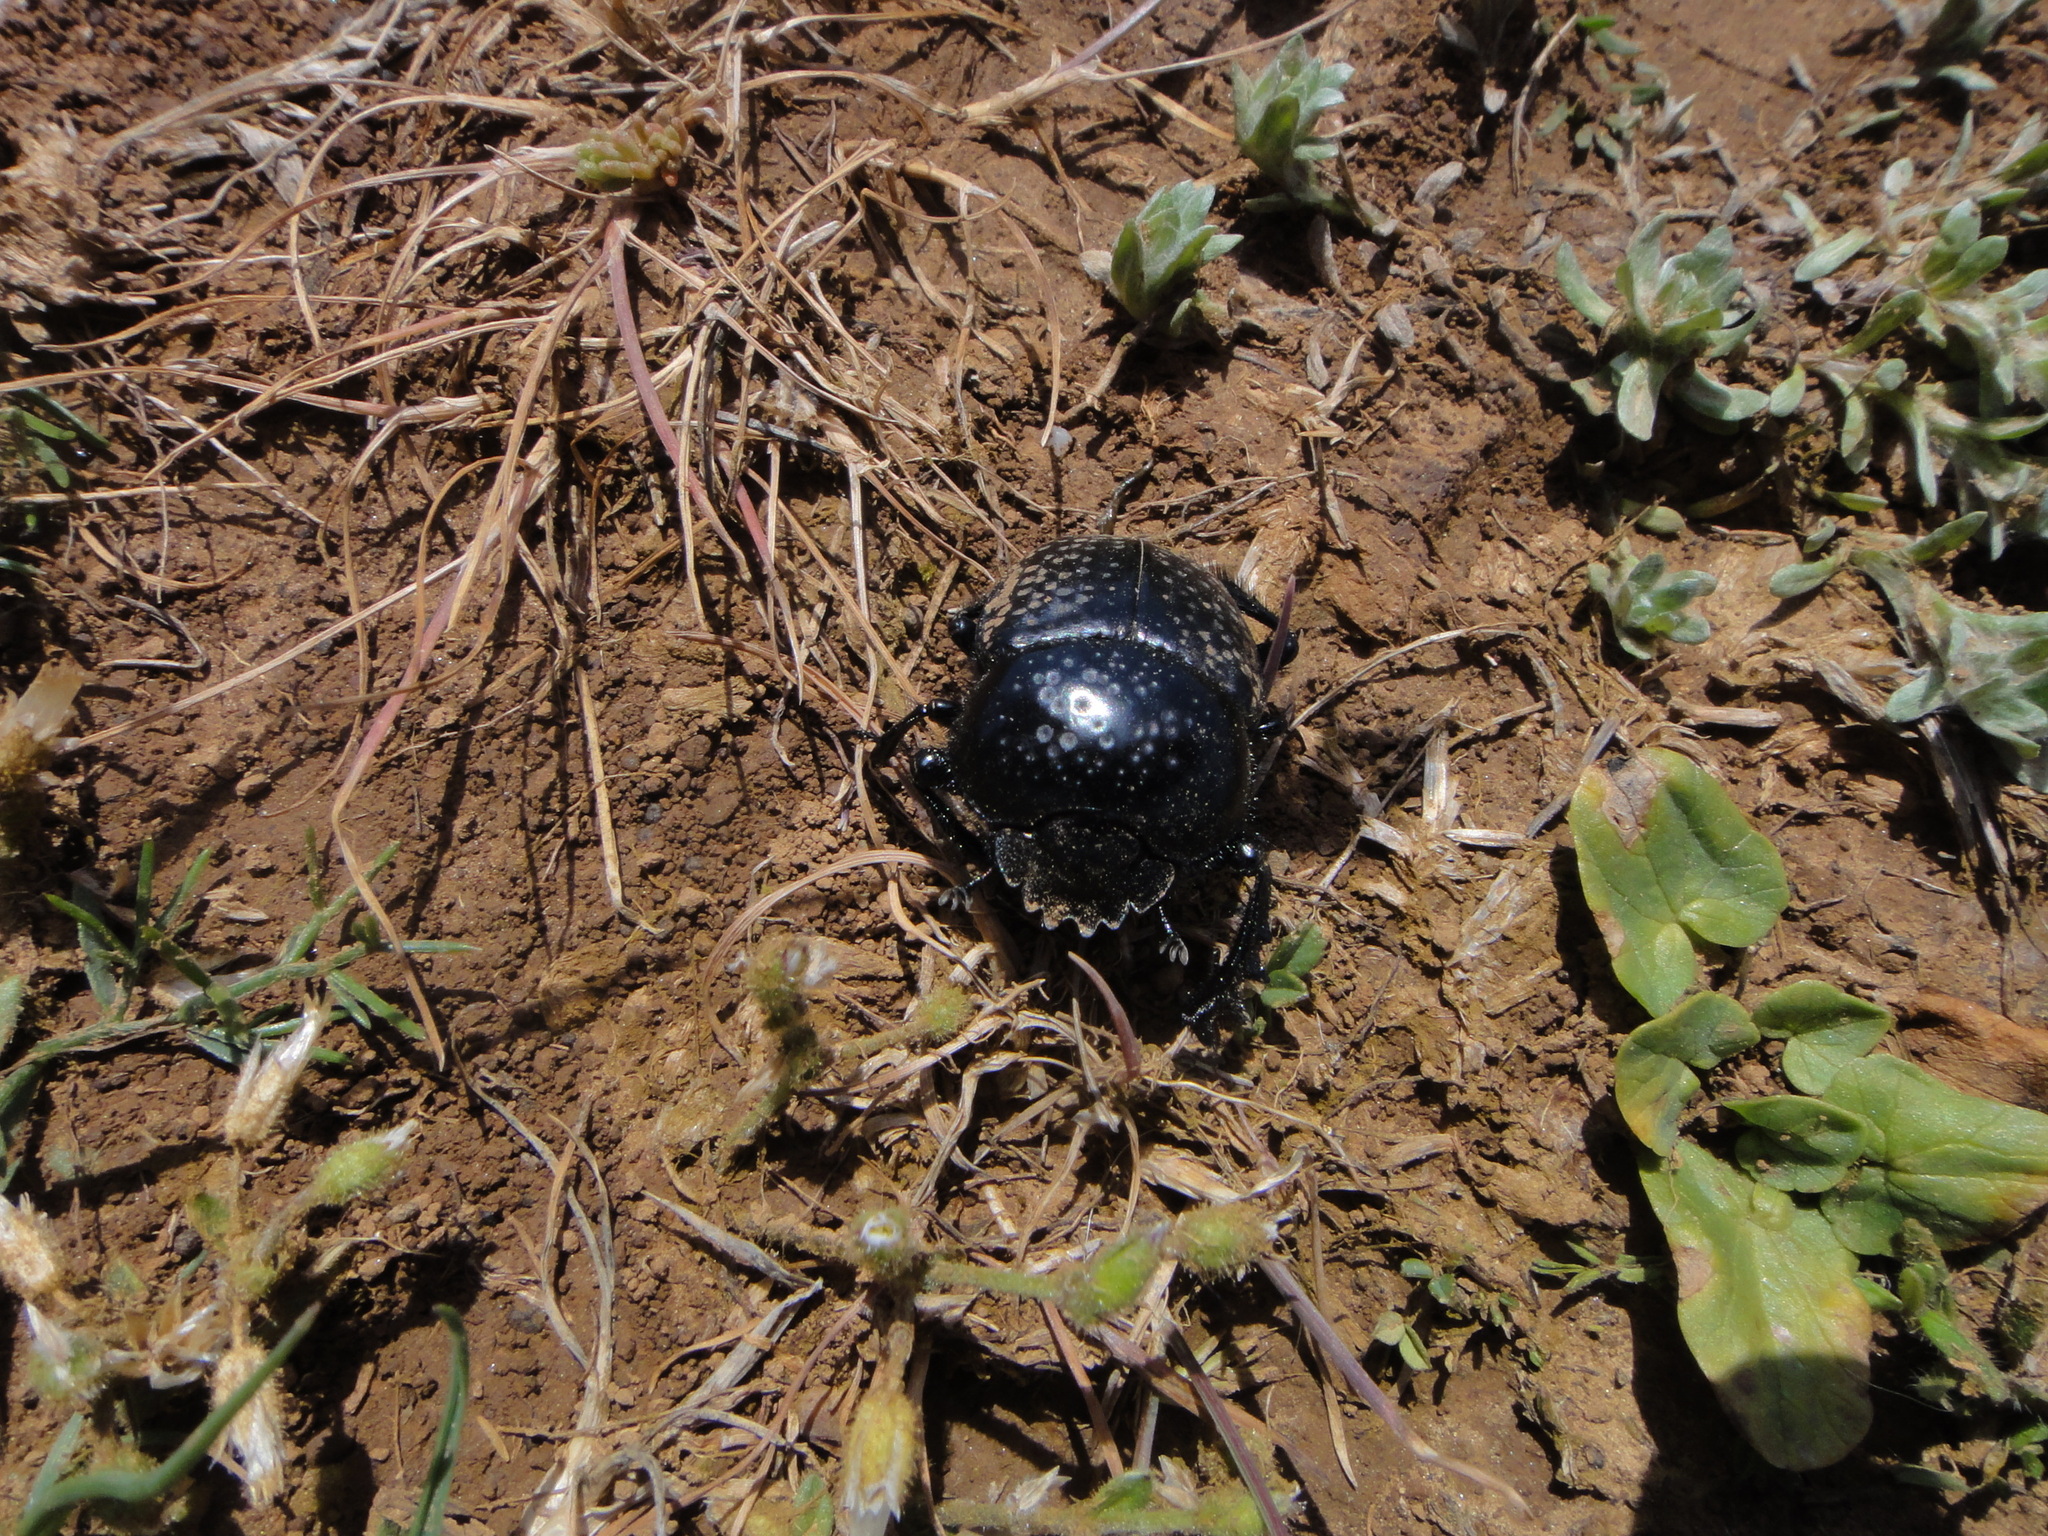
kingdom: Animalia
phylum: Arthropoda
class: Insecta
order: Coleoptera
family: Scarabaeidae
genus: Ateuchetus
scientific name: Ateuchetus
